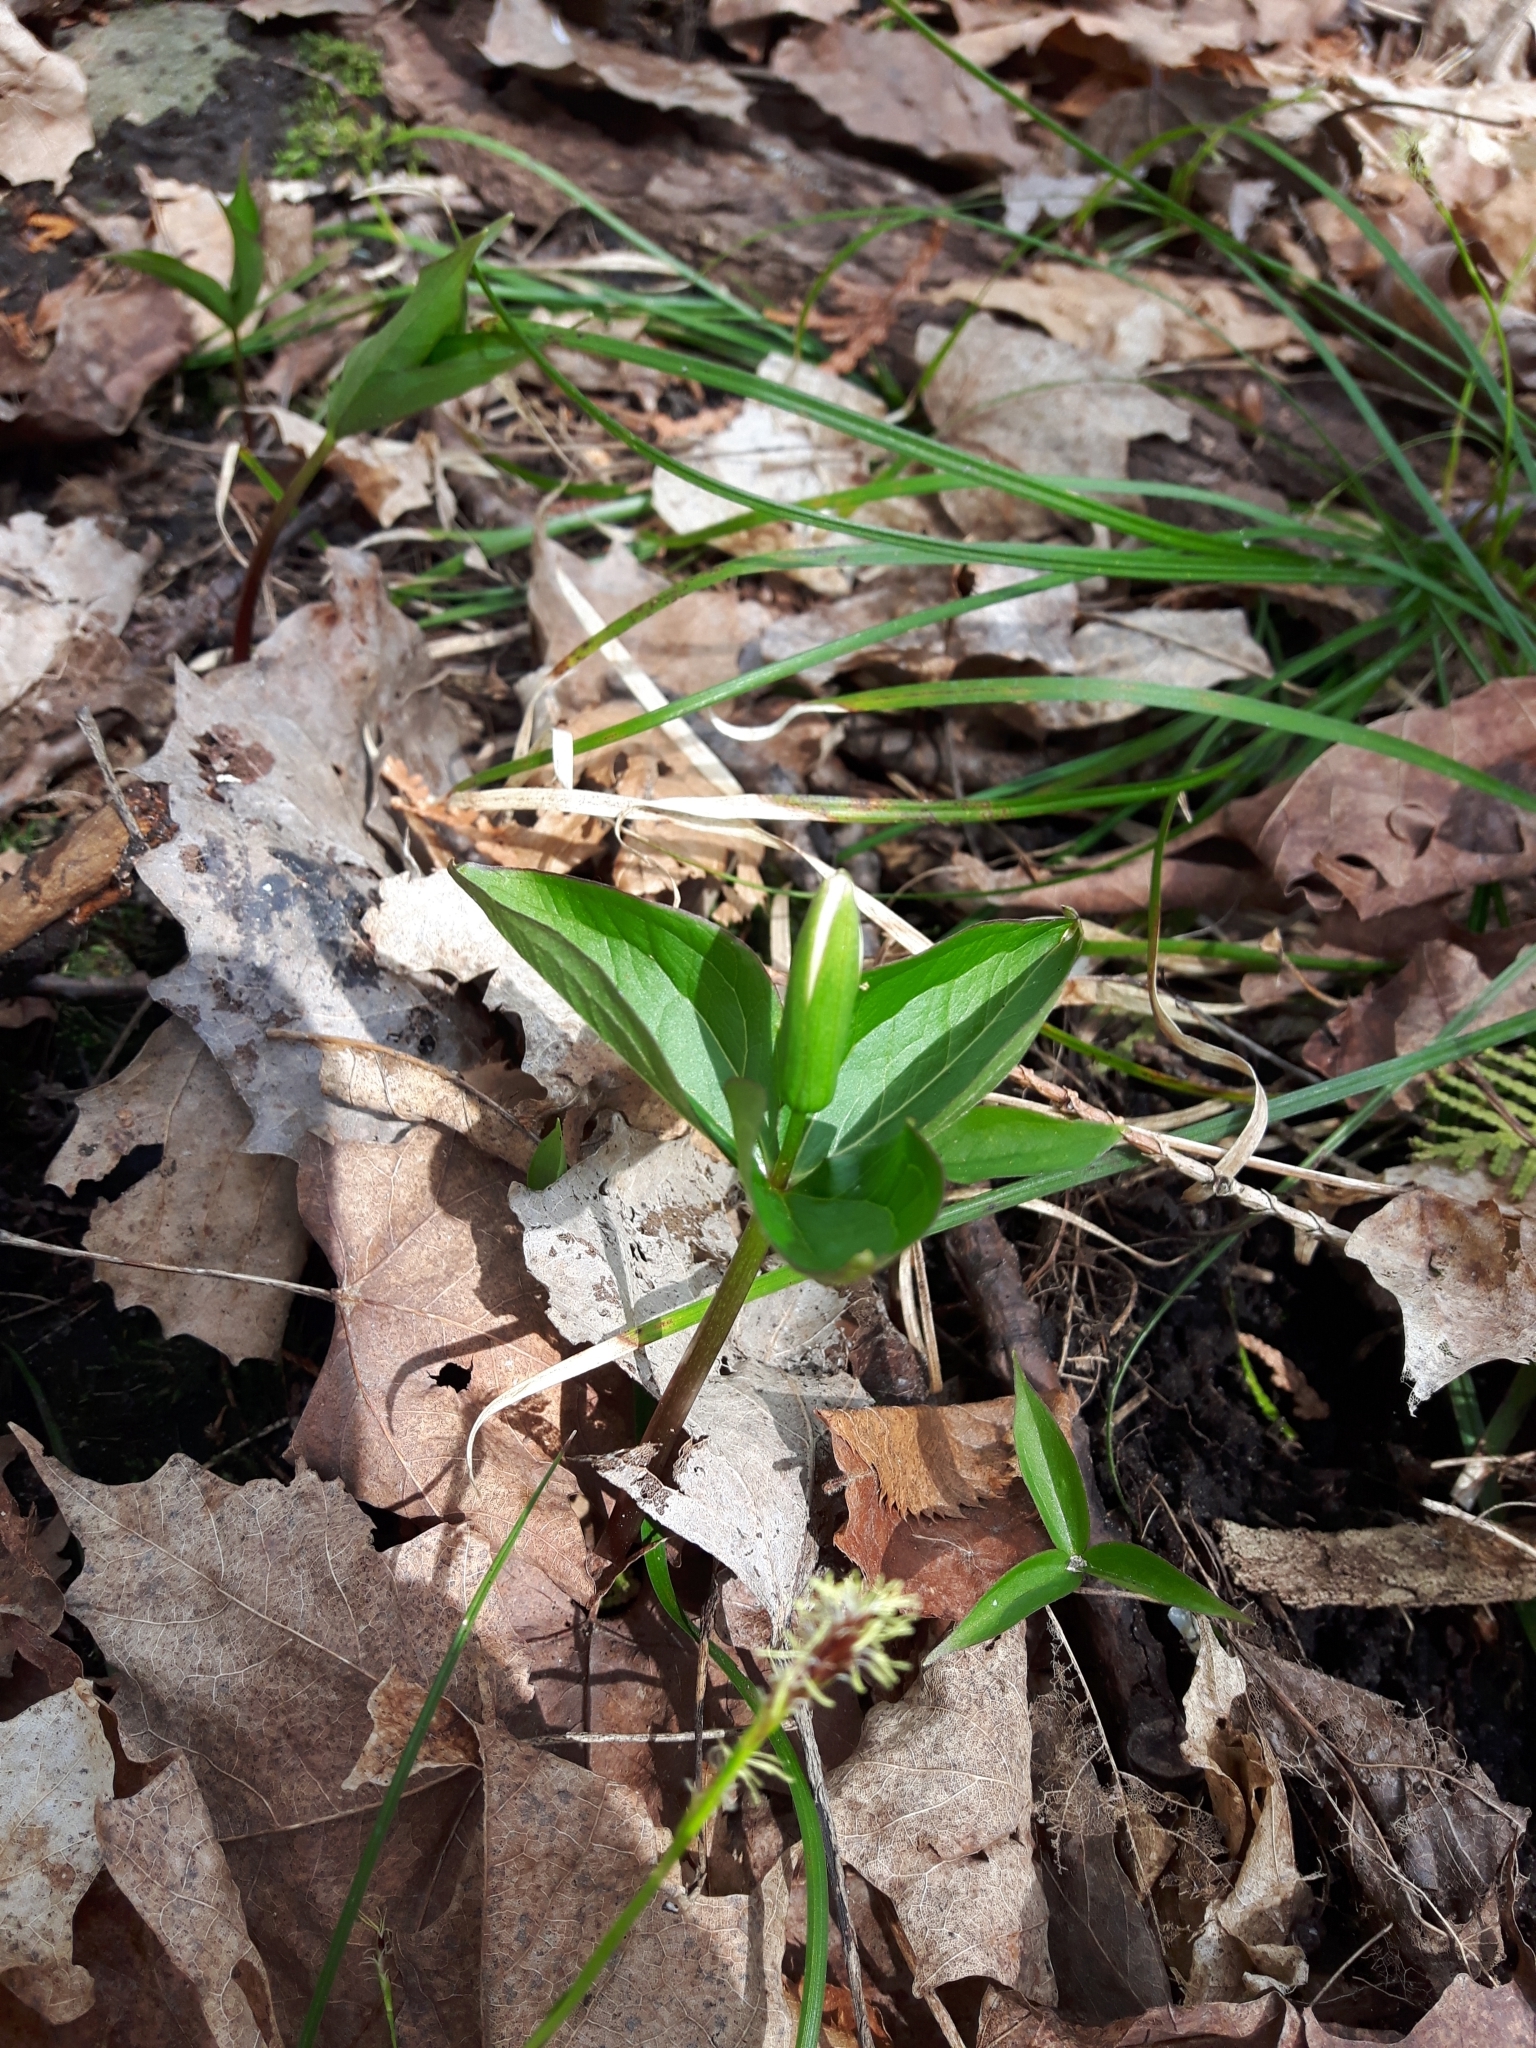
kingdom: Plantae
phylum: Tracheophyta
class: Liliopsida
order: Liliales
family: Melanthiaceae
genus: Trillium
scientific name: Trillium grandiflorum
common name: Great white trillium
